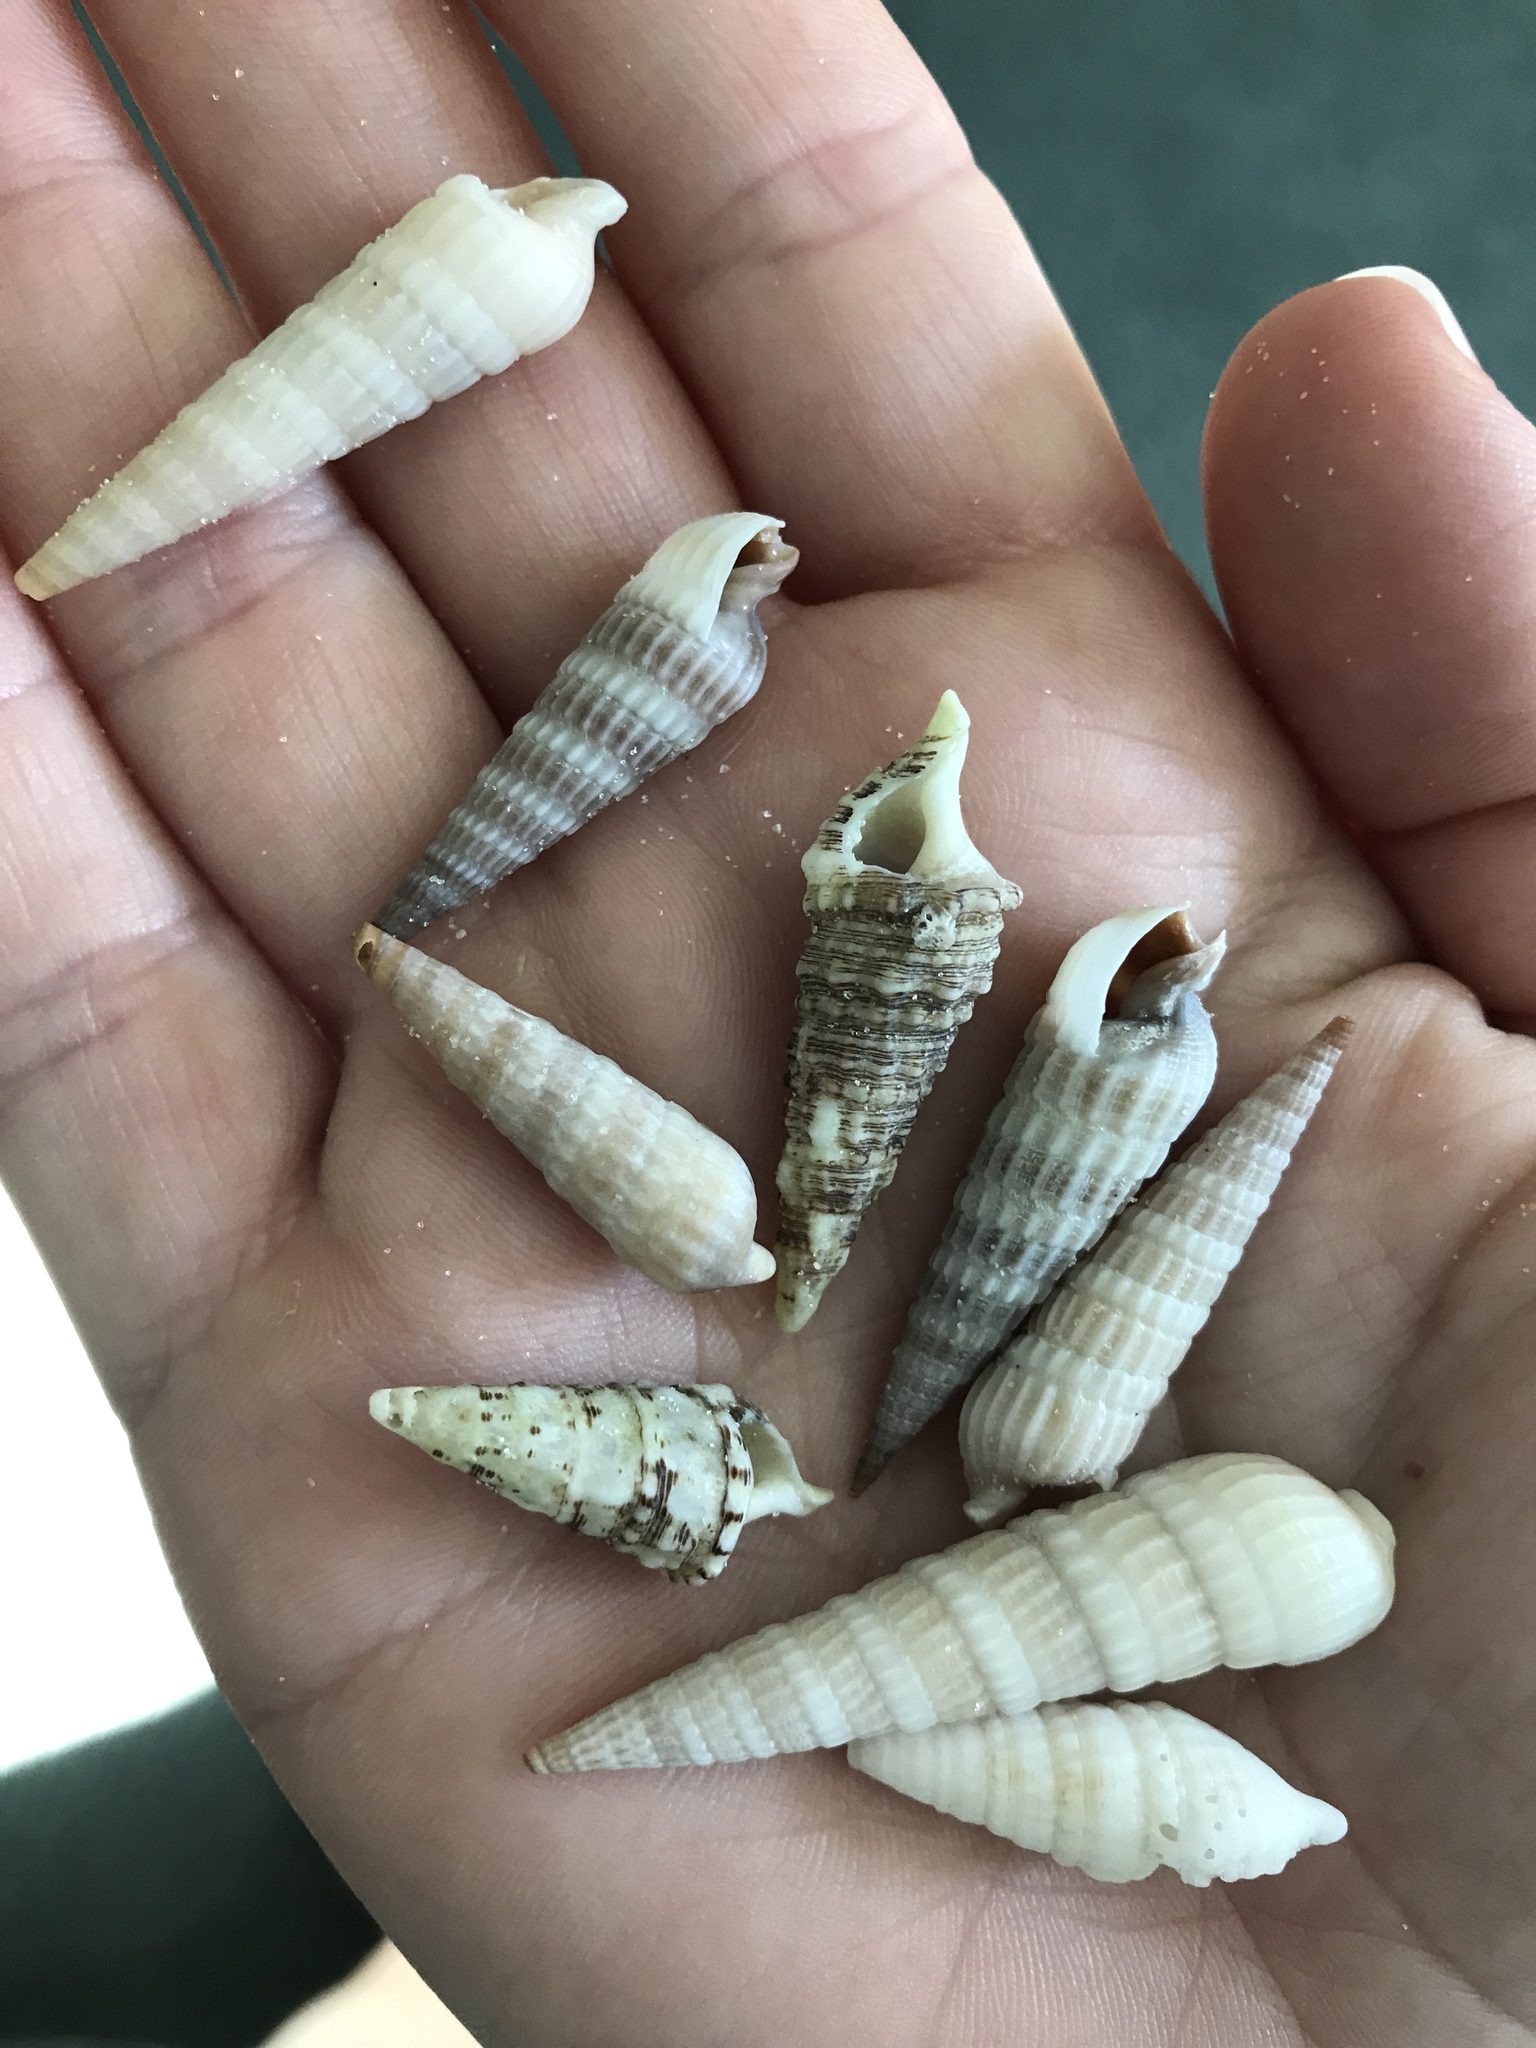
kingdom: Animalia
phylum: Mollusca
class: Gastropoda
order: Neogastropoda
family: Terebridae
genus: Neoterebra
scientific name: Neoterebra dislocata
